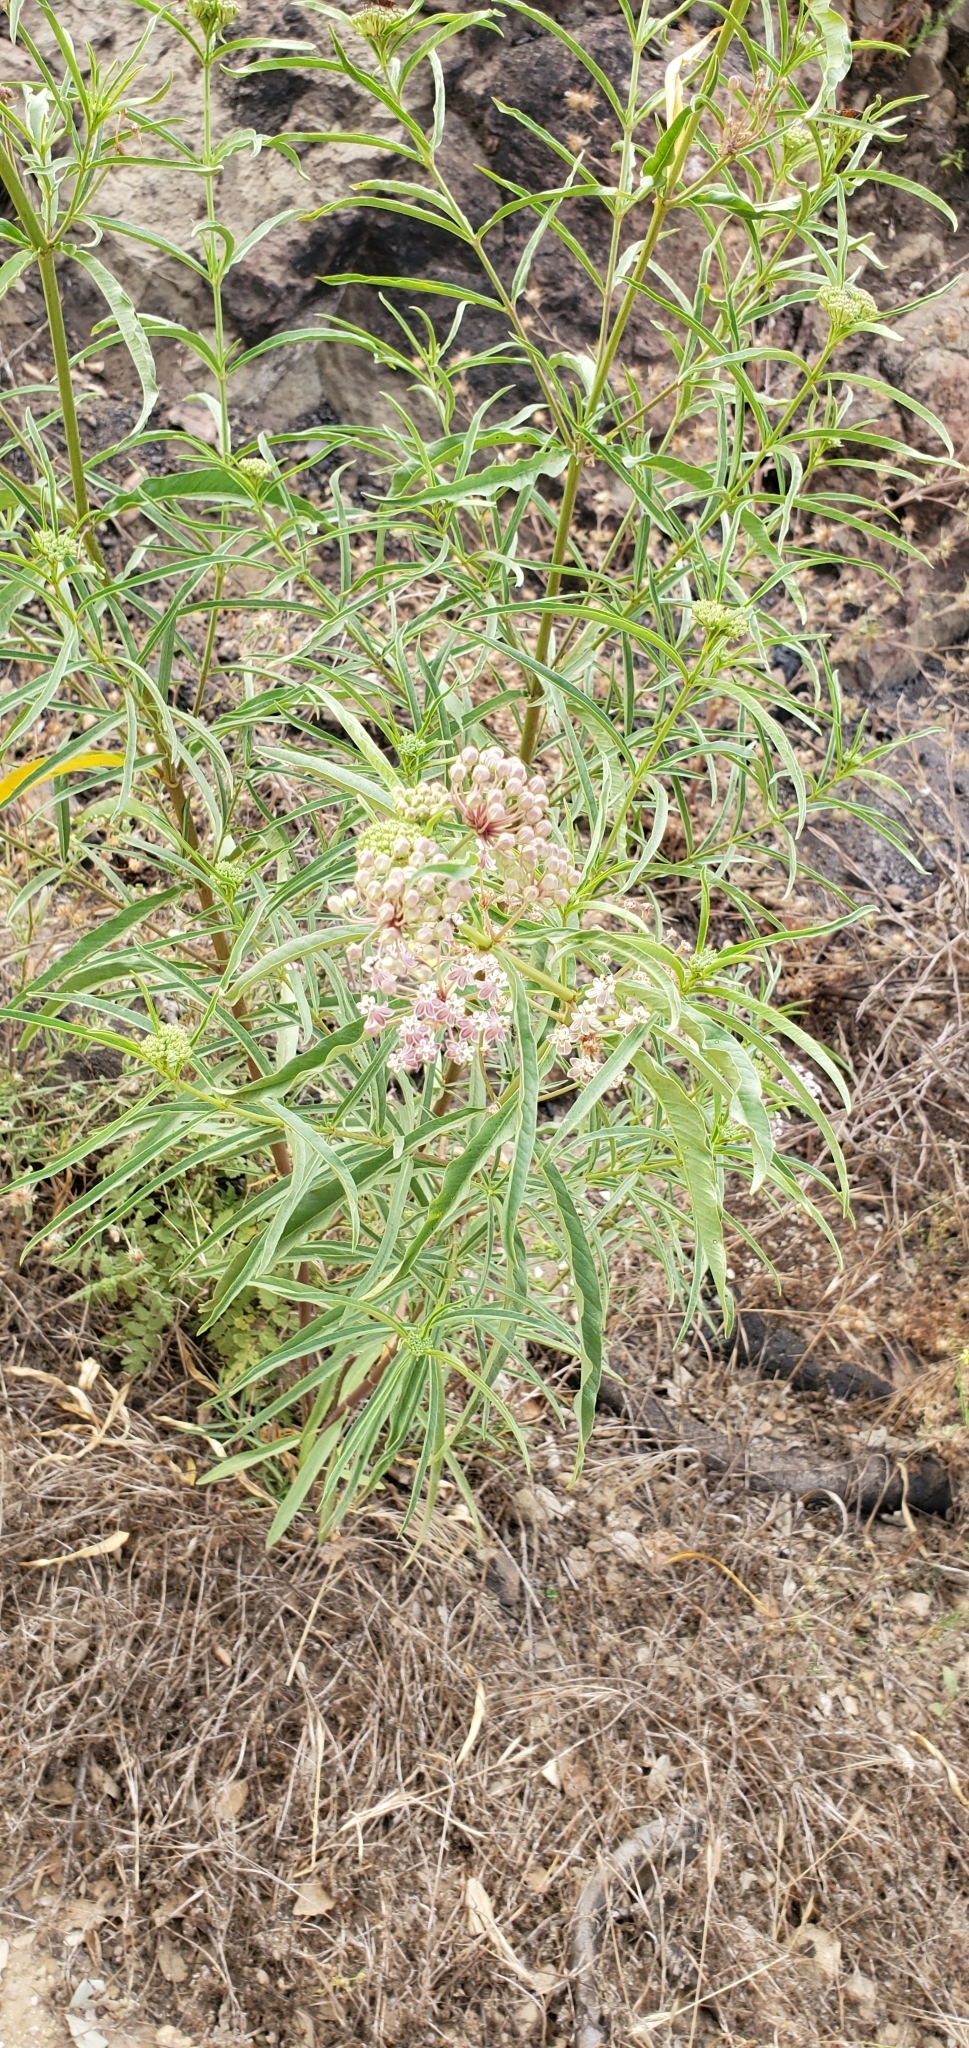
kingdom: Plantae
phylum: Tracheophyta
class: Magnoliopsida
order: Gentianales
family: Apocynaceae
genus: Asclepias
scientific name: Asclepias fascicularis
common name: Mexican milkweed
